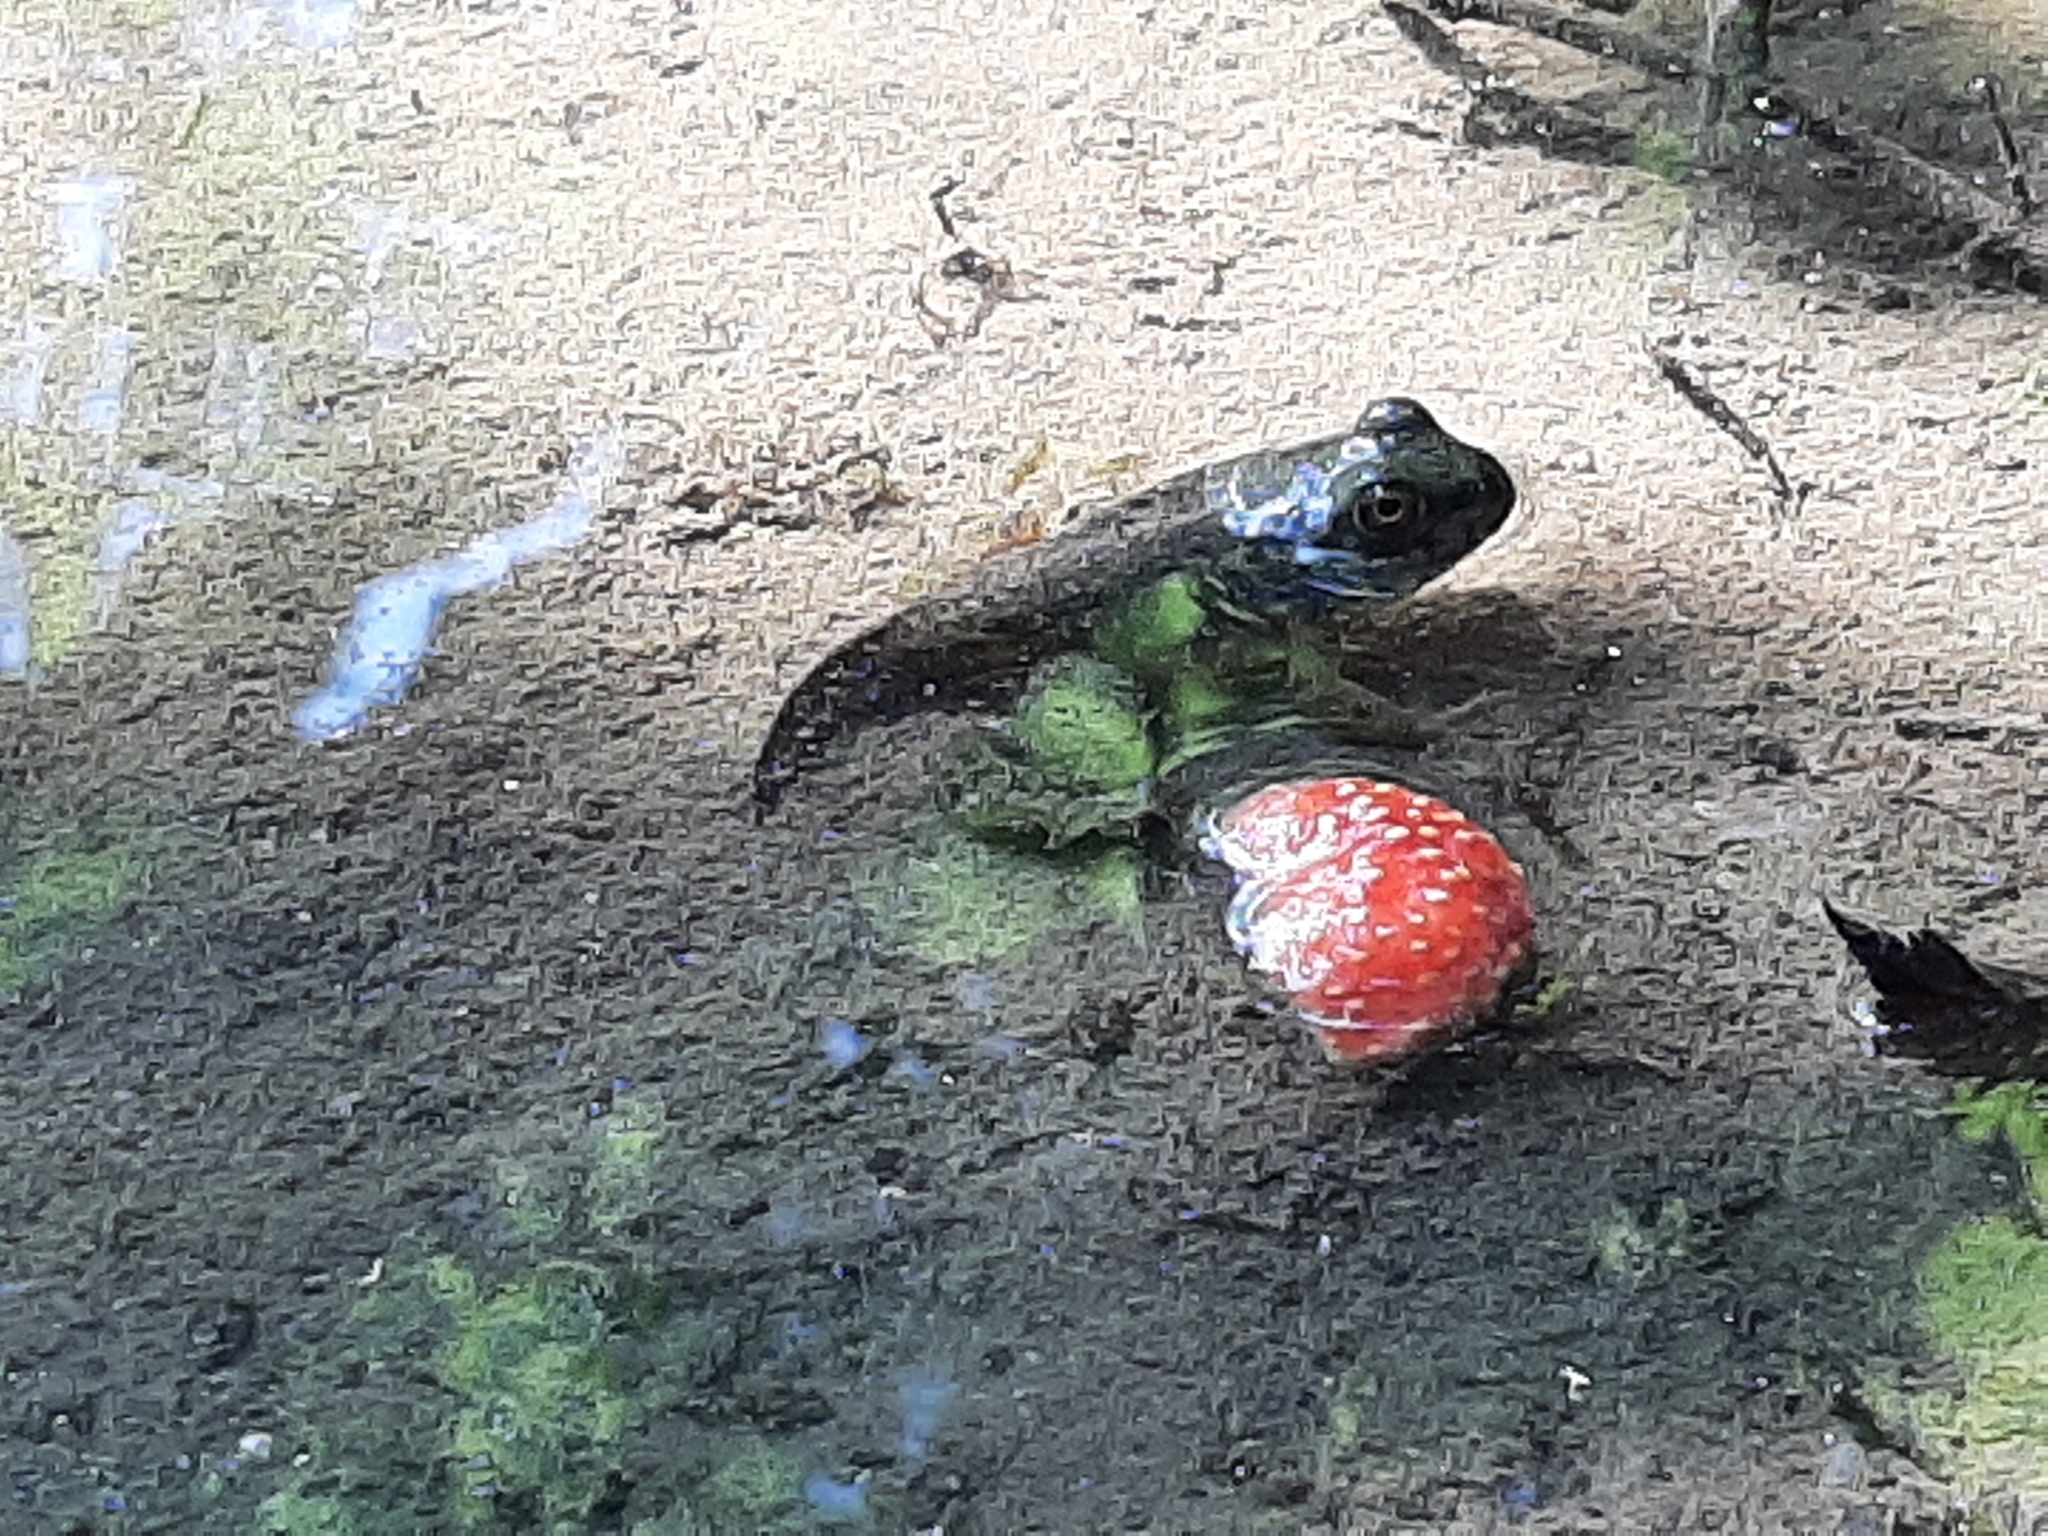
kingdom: Animalia
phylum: Chordata
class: Amphibia
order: Anura
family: Ranidae
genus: Lithobates
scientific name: Lithobates catesbeianus
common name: American bullfrog
